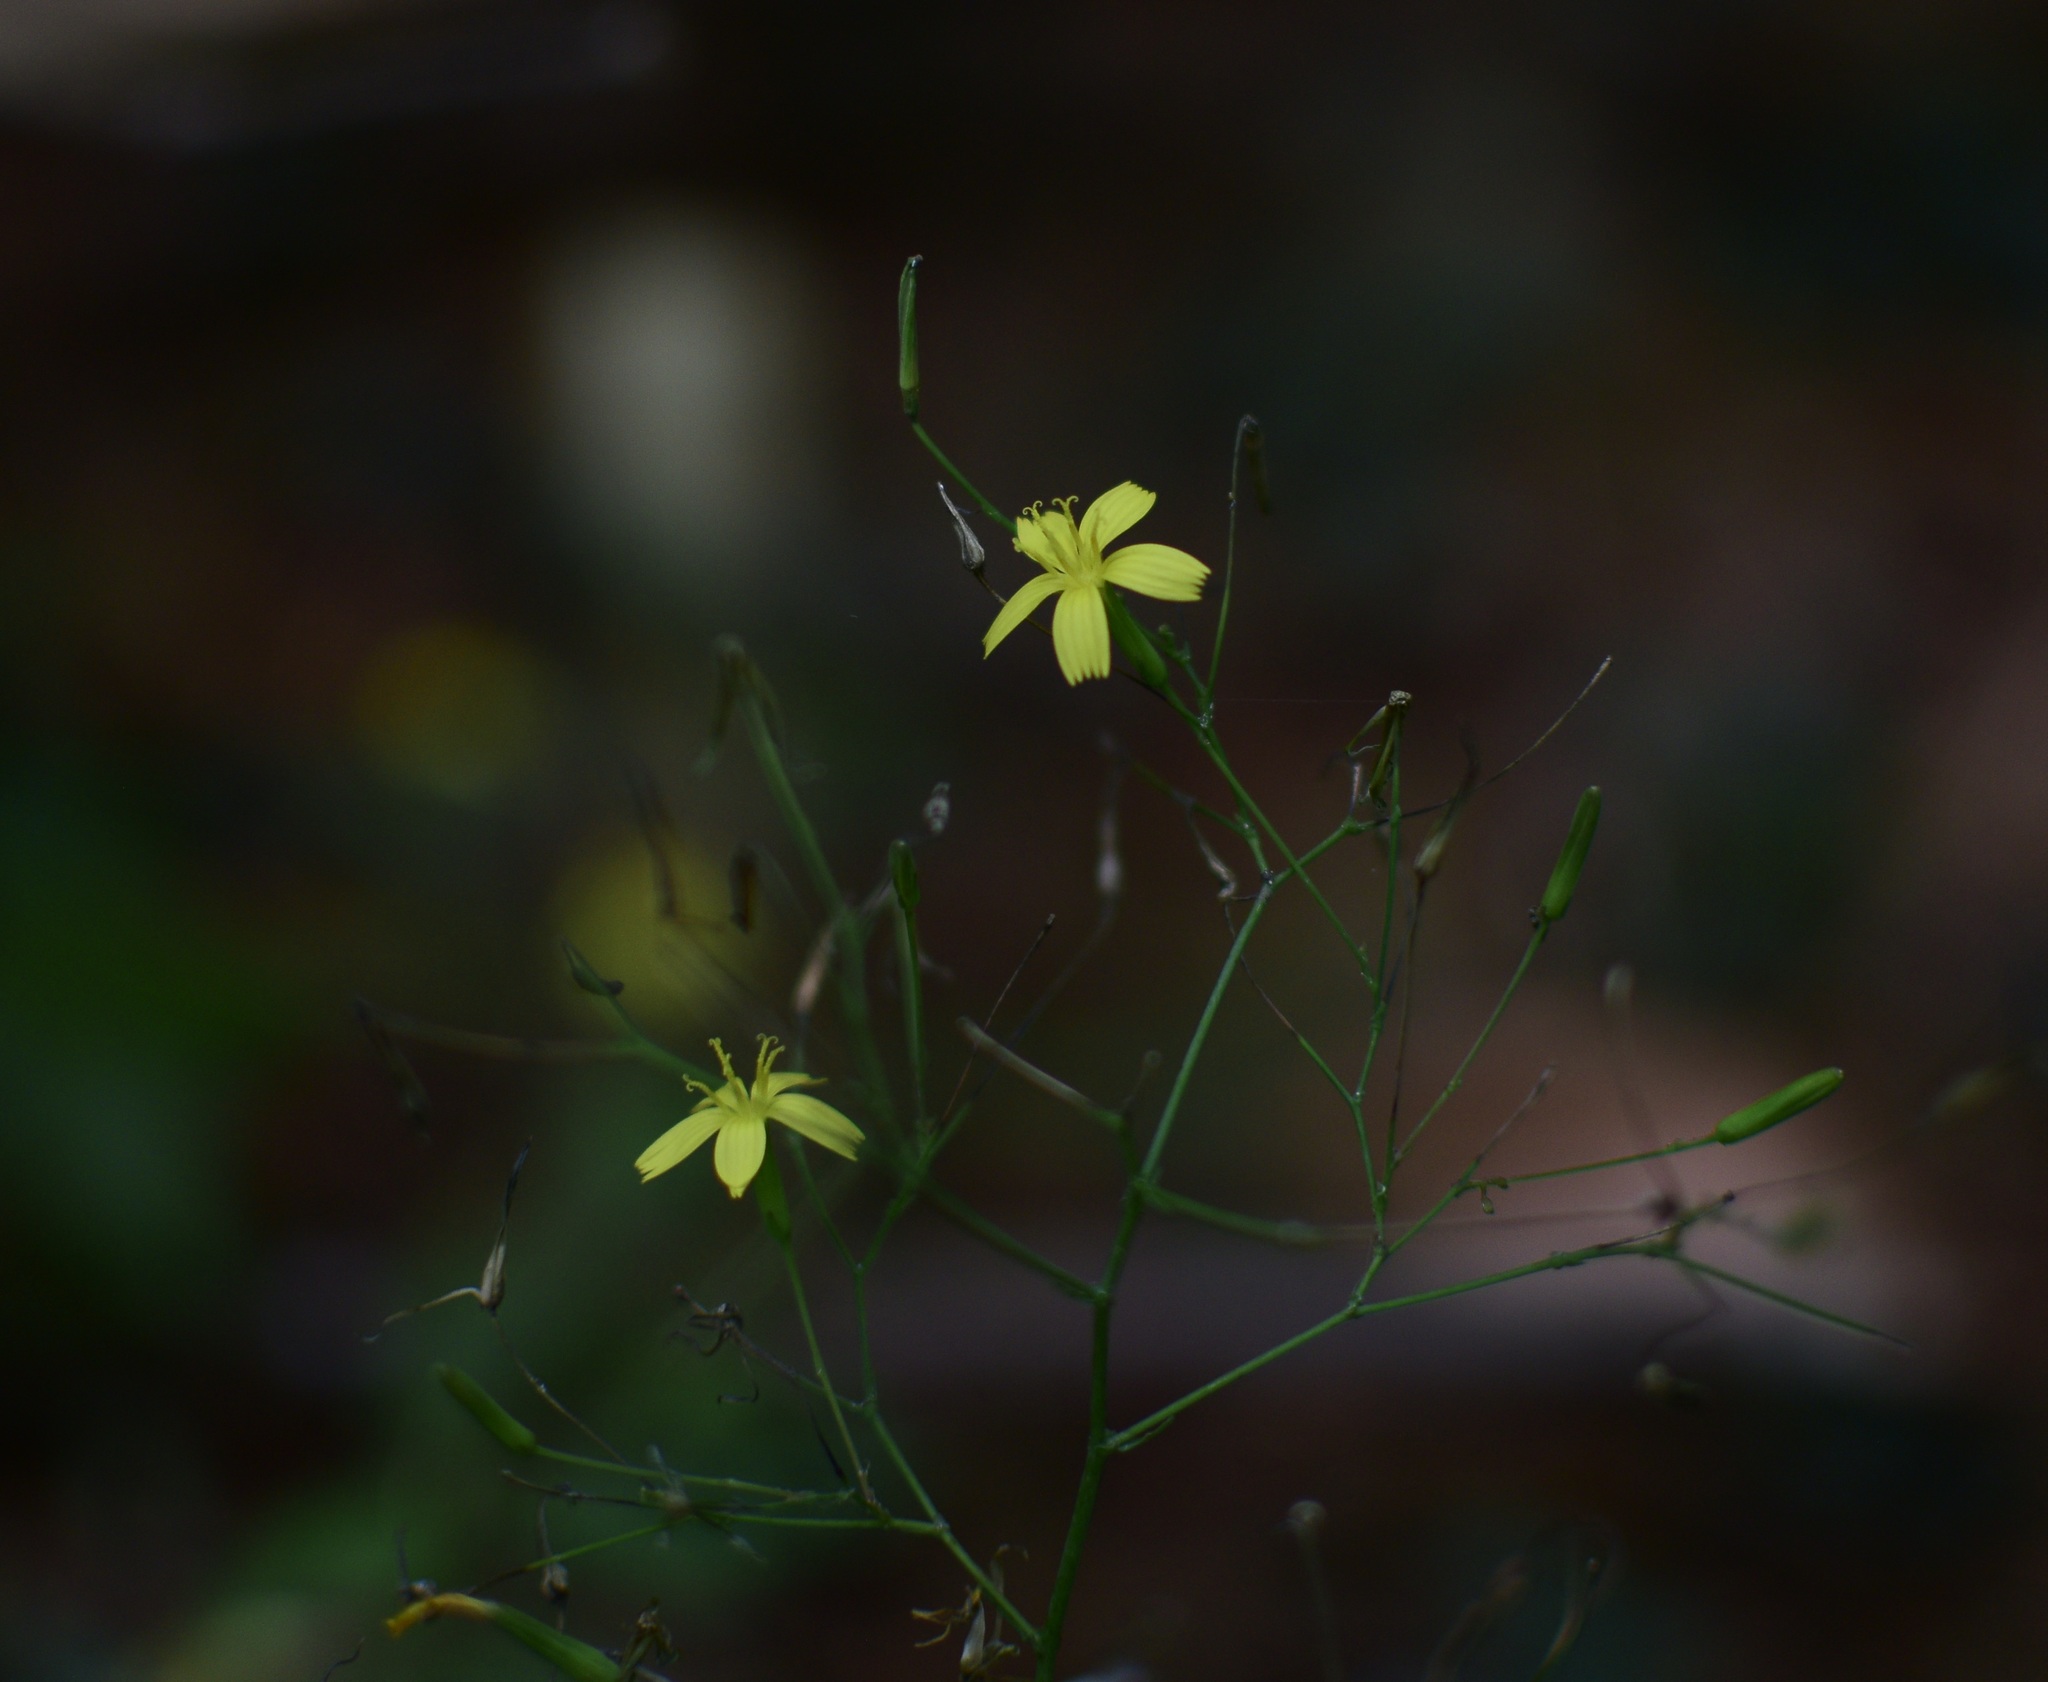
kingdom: Plantae
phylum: Tracheophyta
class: Magnoliopsida
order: Asterales
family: Asteraceae
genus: Mycelis
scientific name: Mycelis muralis
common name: Wall lettuce
